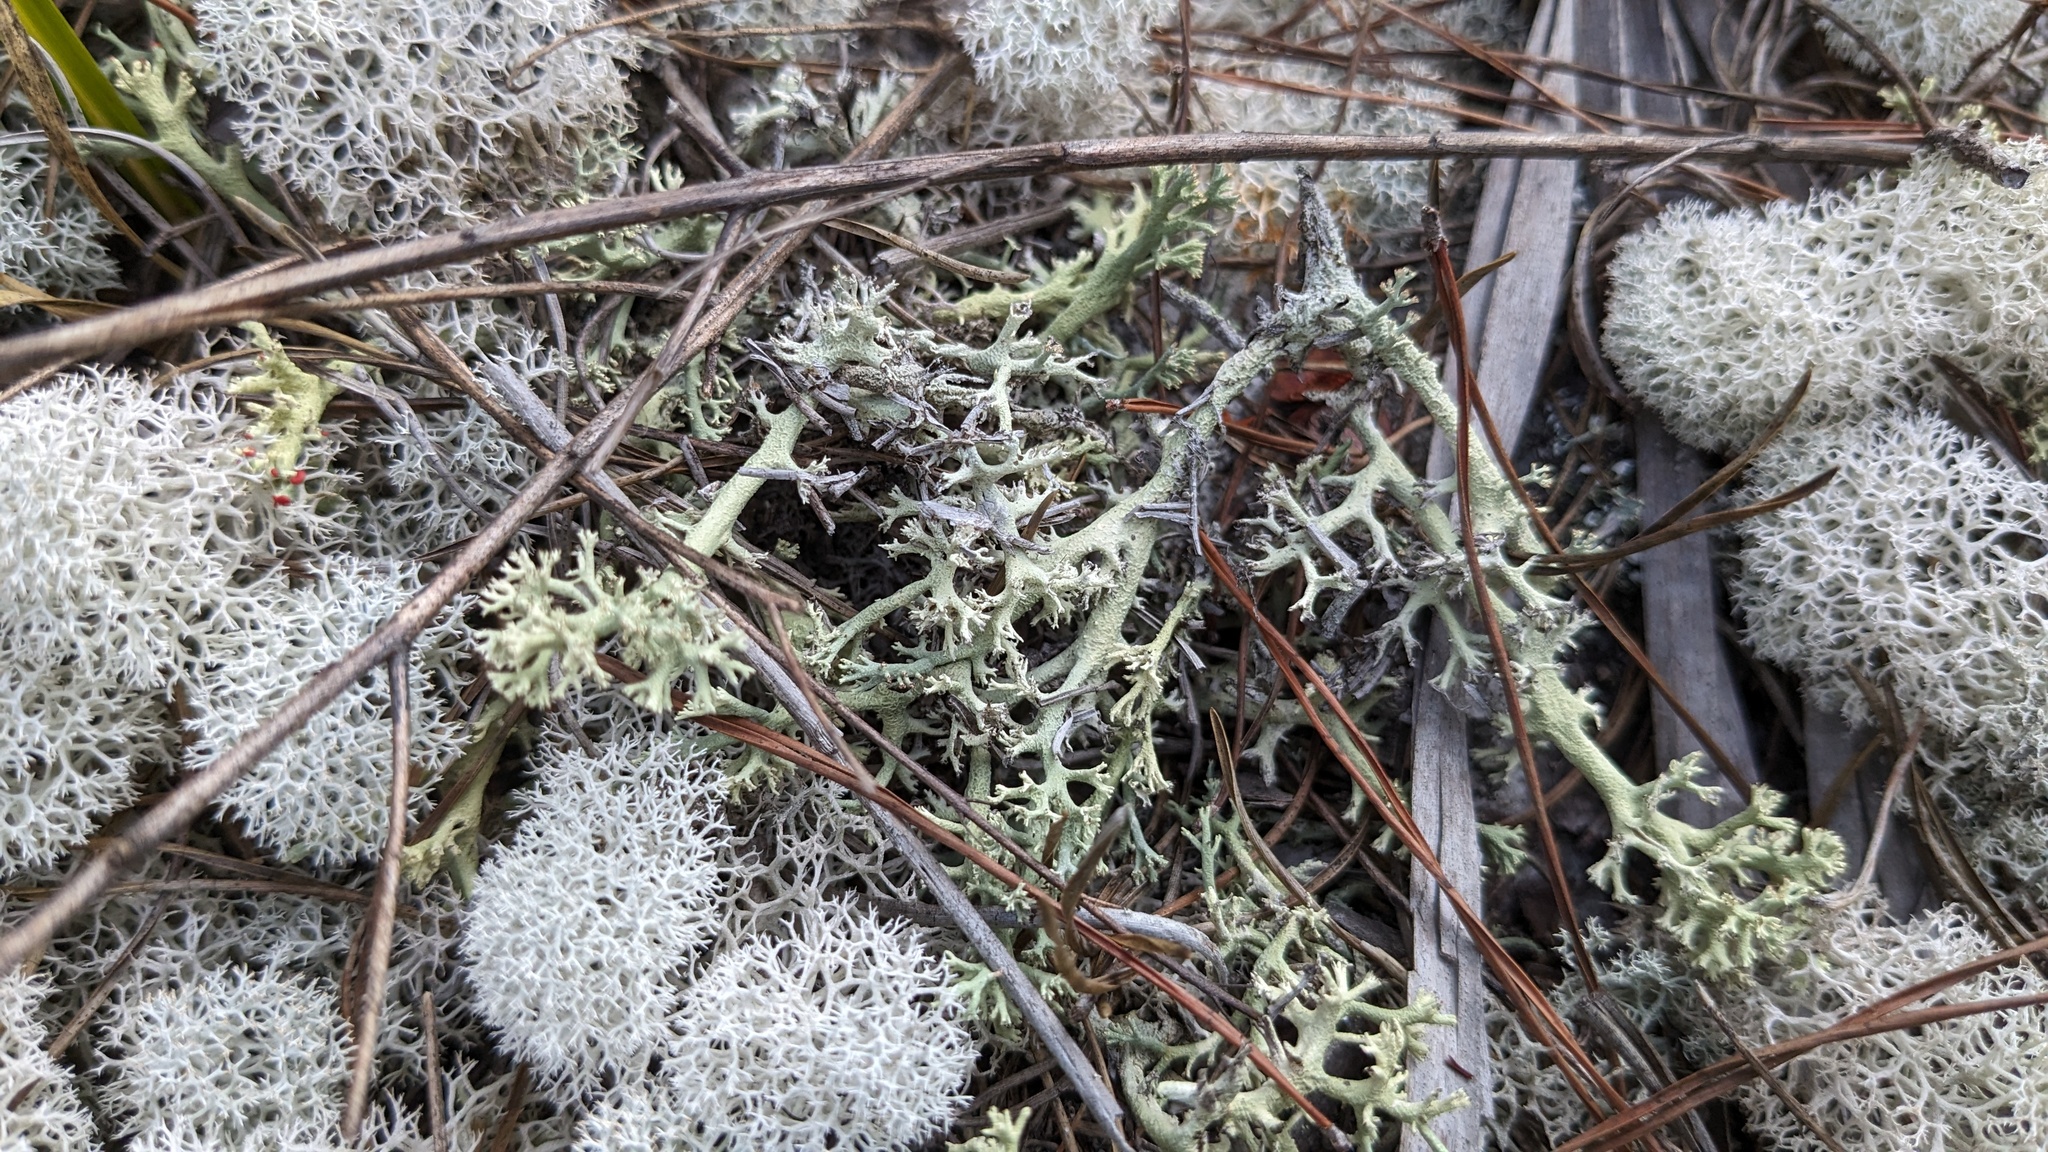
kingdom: Fungi
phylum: Ascomycota
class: Lecanoromycetes
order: Lecanorales
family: Cladoniaceae
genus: Cladonia
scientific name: Cladonia leporina
